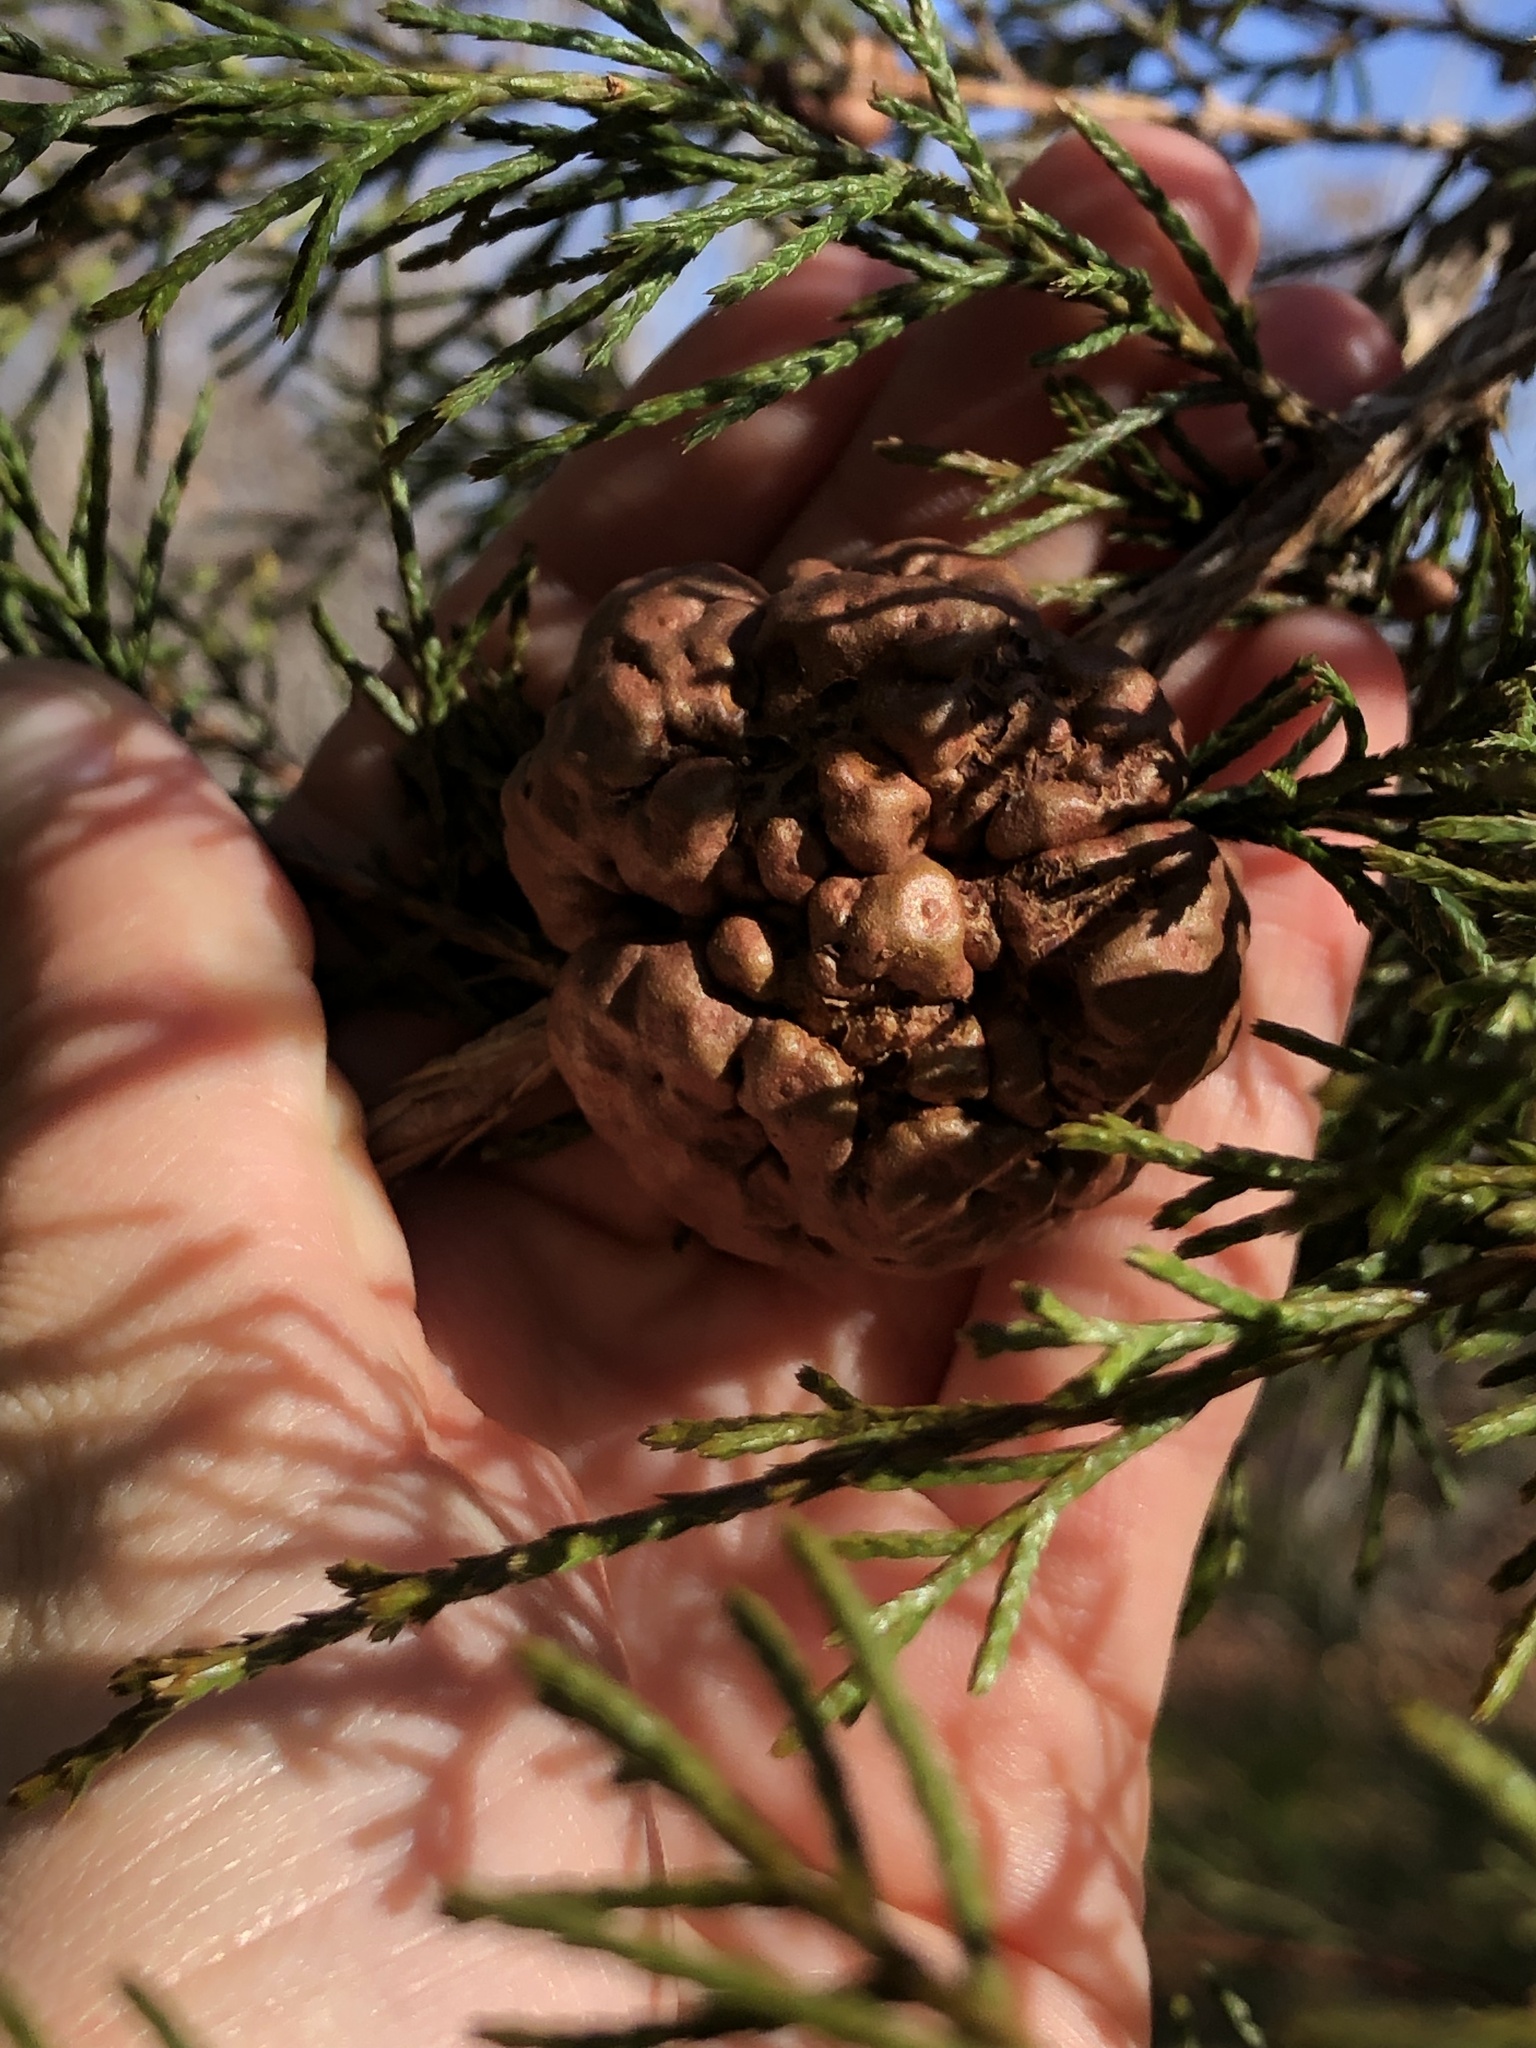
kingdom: Fungi
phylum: Basidiomycota
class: Pucciniomycetes
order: Pucciniales
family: Gymnosporangiaceae
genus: Gymnosporangium
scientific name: Gymnosporangium juniperi-virginianae
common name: Juniper-apple rust
